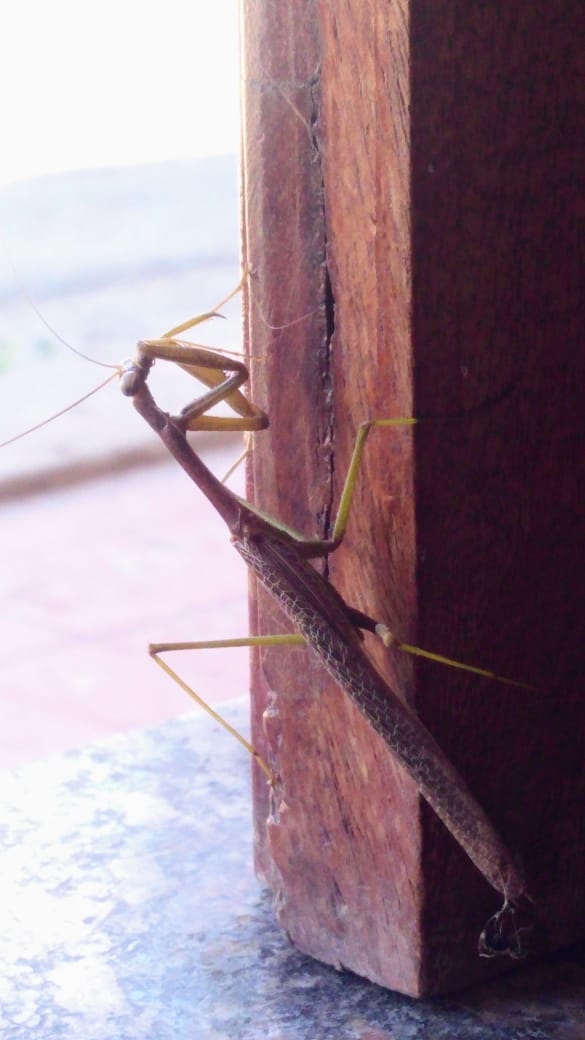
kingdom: Animalia
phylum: Arthropoda
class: Insecta
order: Mantodea
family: Coptopterygidae
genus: Coptopteryx
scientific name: Coptopteryx gayi
